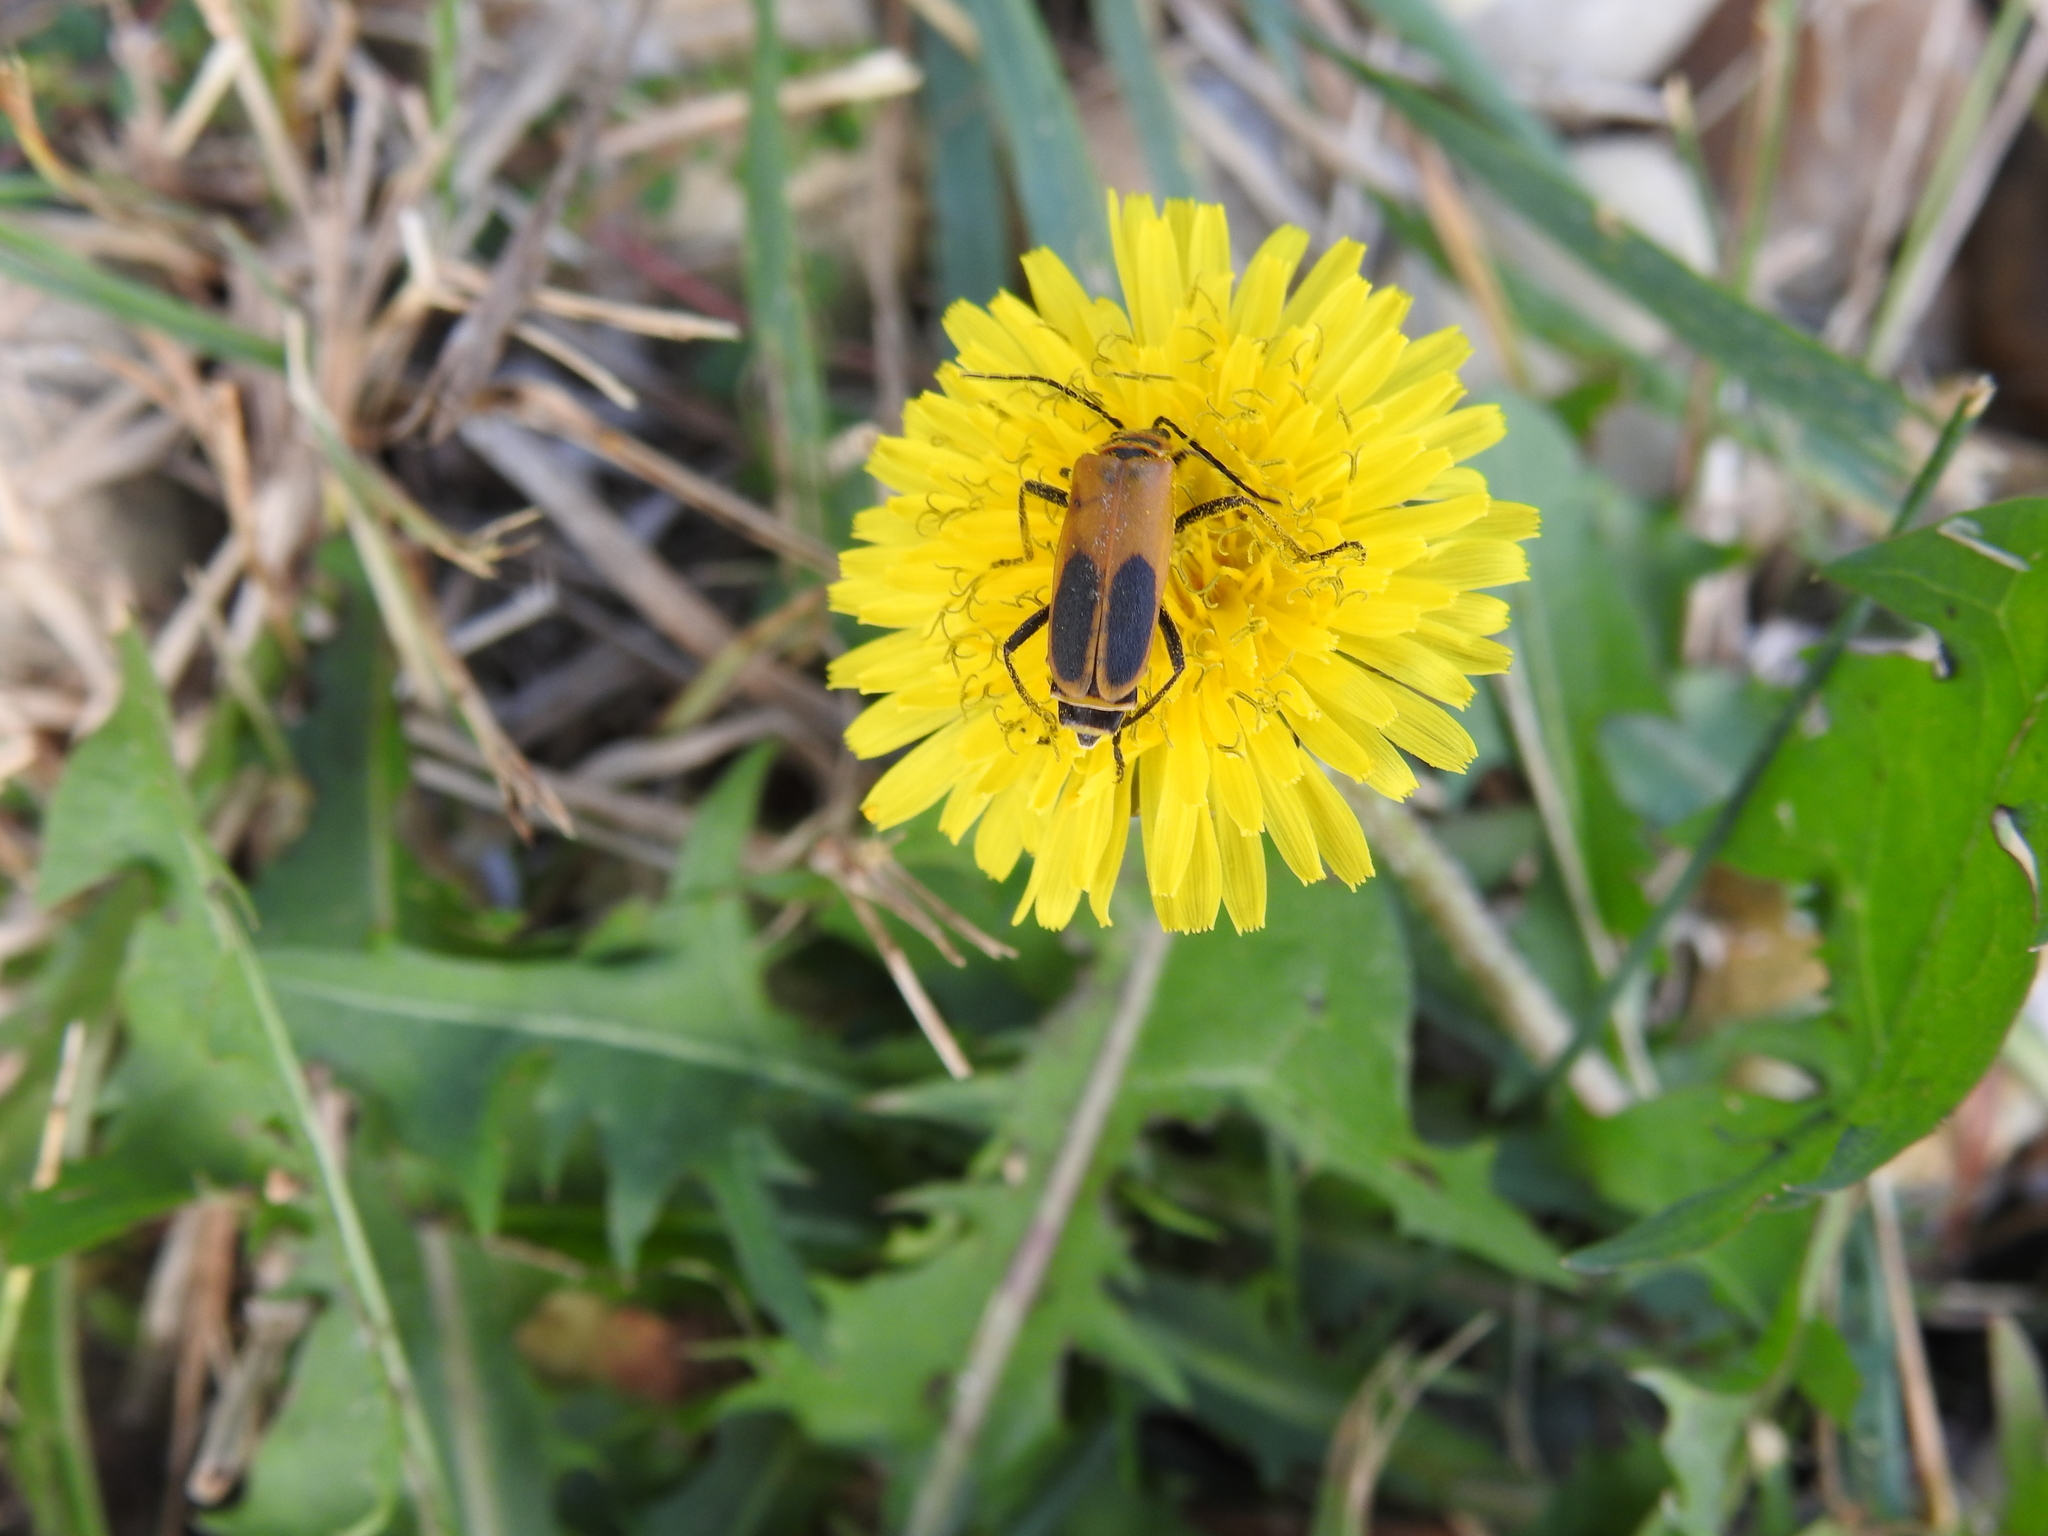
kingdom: Animalia
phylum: Arthropoda
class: Insecta
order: Coleoptera
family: Cantharidae
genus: Chauliognathus
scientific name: Chauliognathus pensylvanicus
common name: Goldenrod soldier beetle
